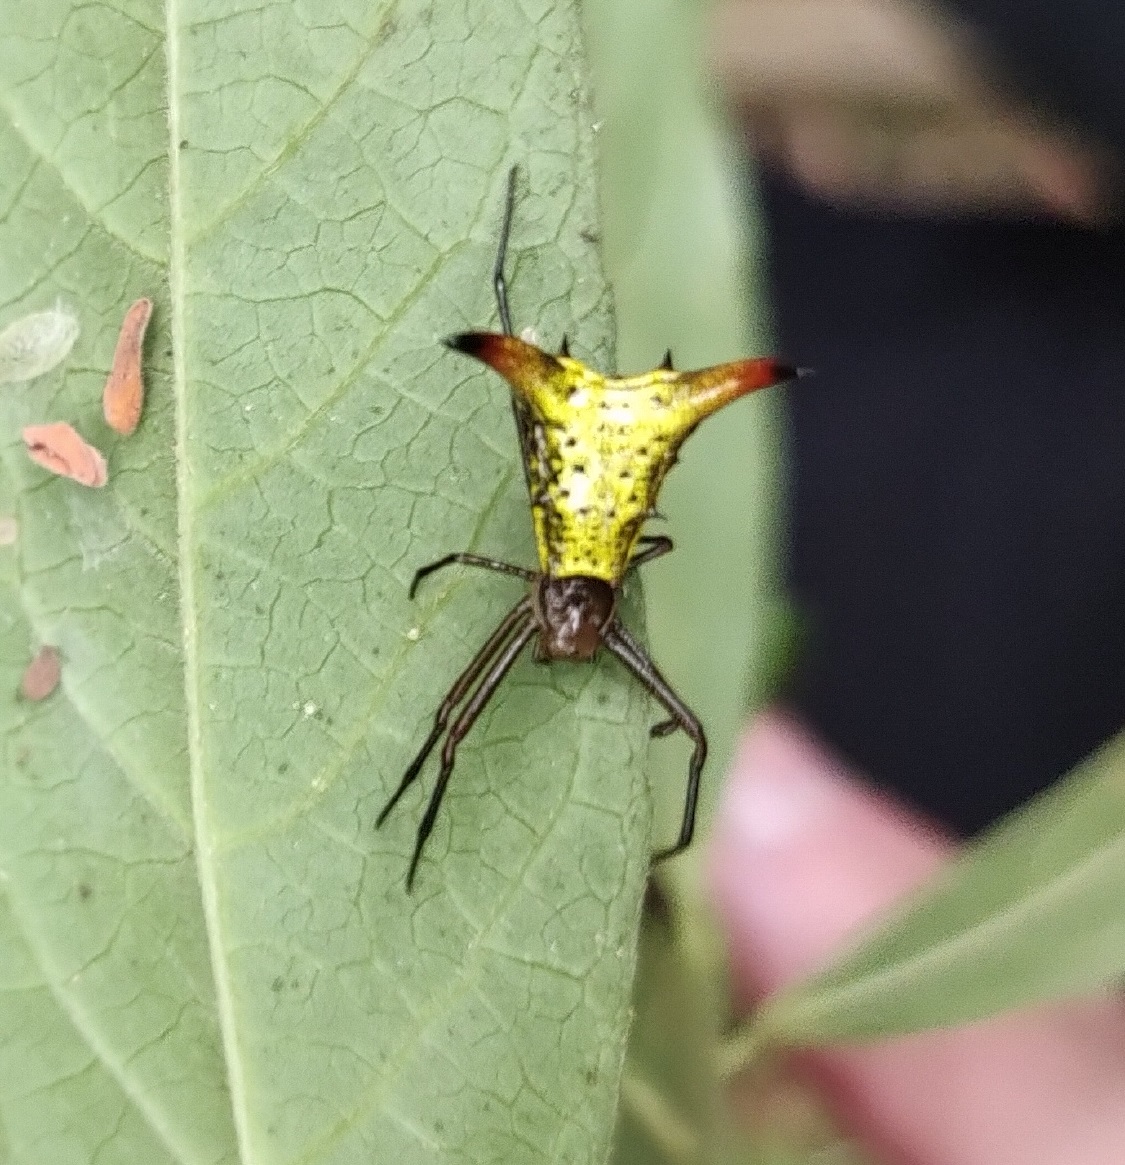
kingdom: Animalia
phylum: Arthropoda
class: Arachnida
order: Araneae
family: Araneidae
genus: Micrathena
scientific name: Micrathena crassispina
